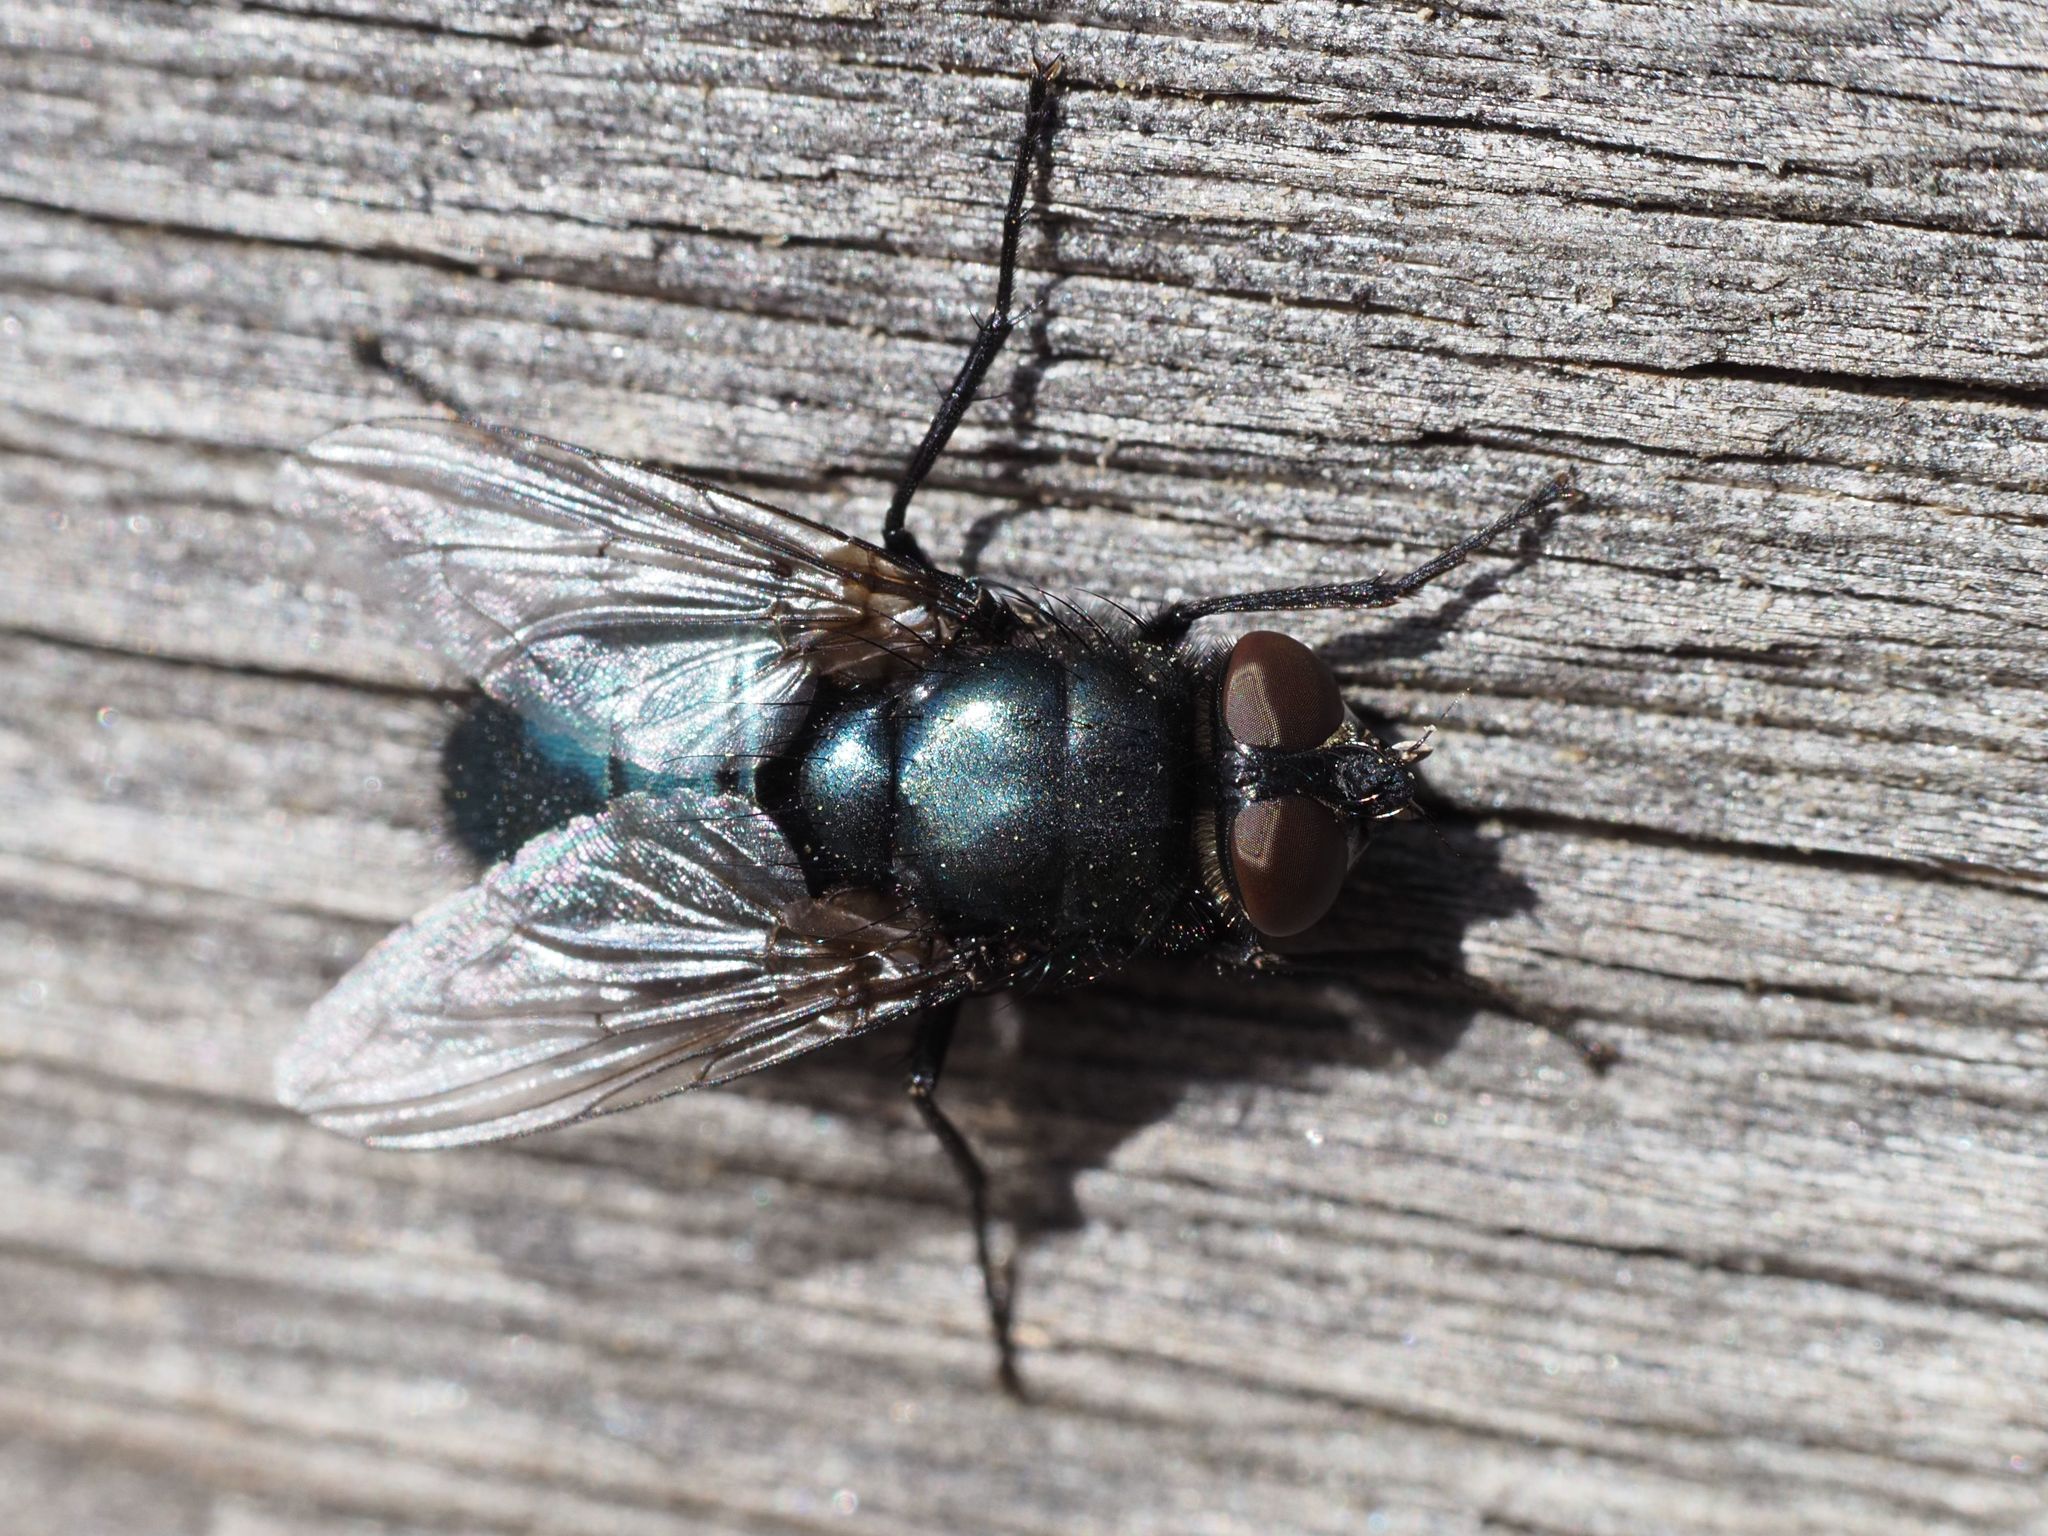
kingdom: Animalia
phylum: Arthropoda
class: Insecta
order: Diptera
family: Calliphoridae
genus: Protophormia
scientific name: Protophormia terraenovae
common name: Blackbottle
